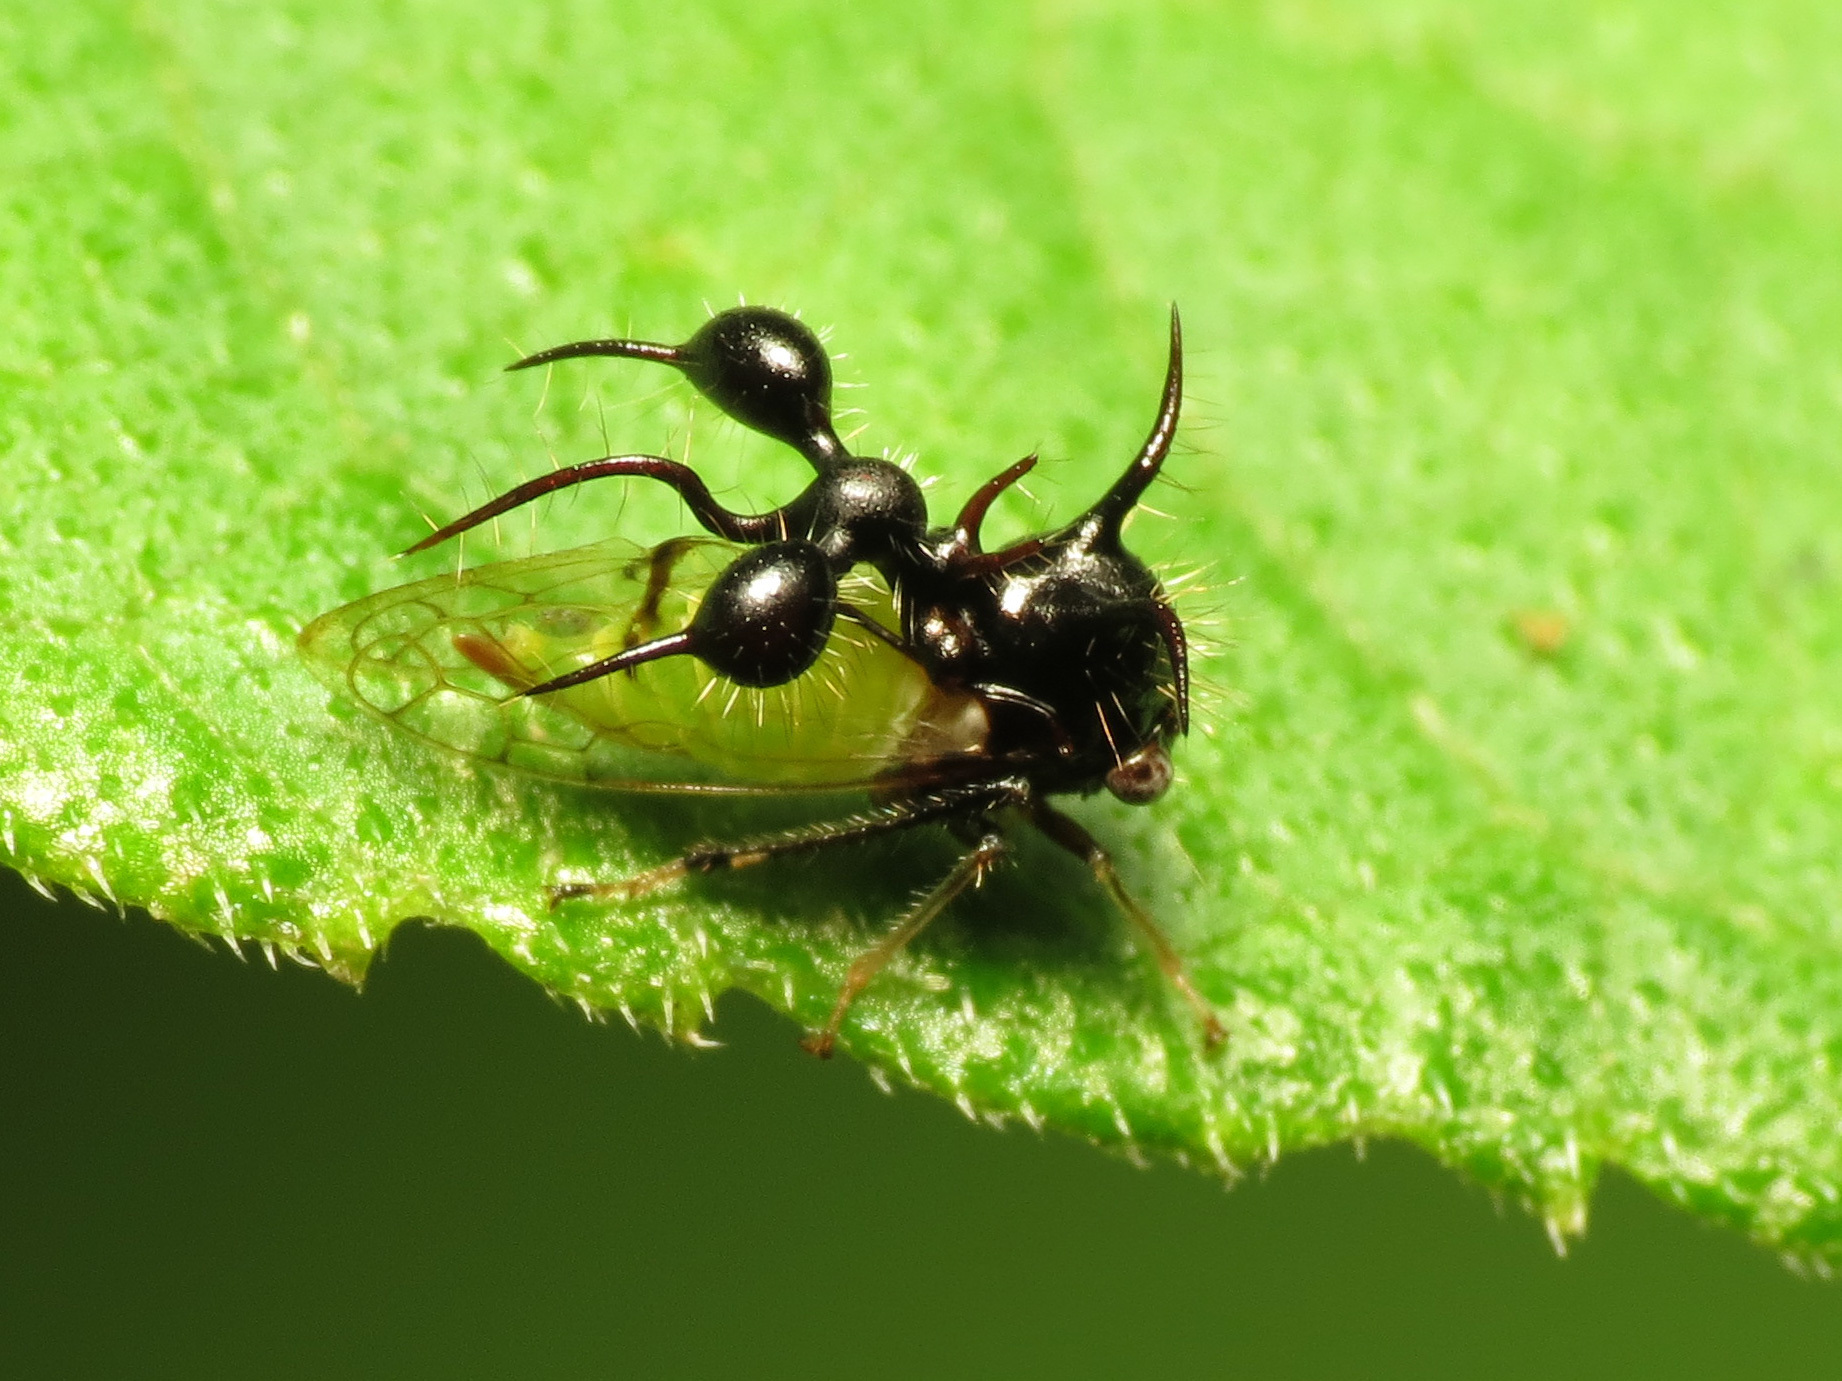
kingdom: Animalia
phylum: Arthropoda
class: Insecta
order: Hemiptera
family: Membracidae
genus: Cyphonia
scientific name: Cyphonia clavata
